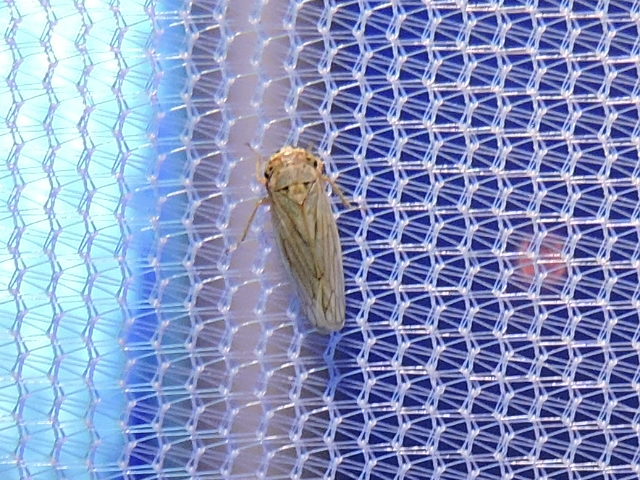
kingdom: Animalia
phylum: Arthropoda
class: Insecta
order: Hemiptera
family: Cicadellidae
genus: Exitianus
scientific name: Exitianus exitiosus
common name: Gray lawn leafhopper
